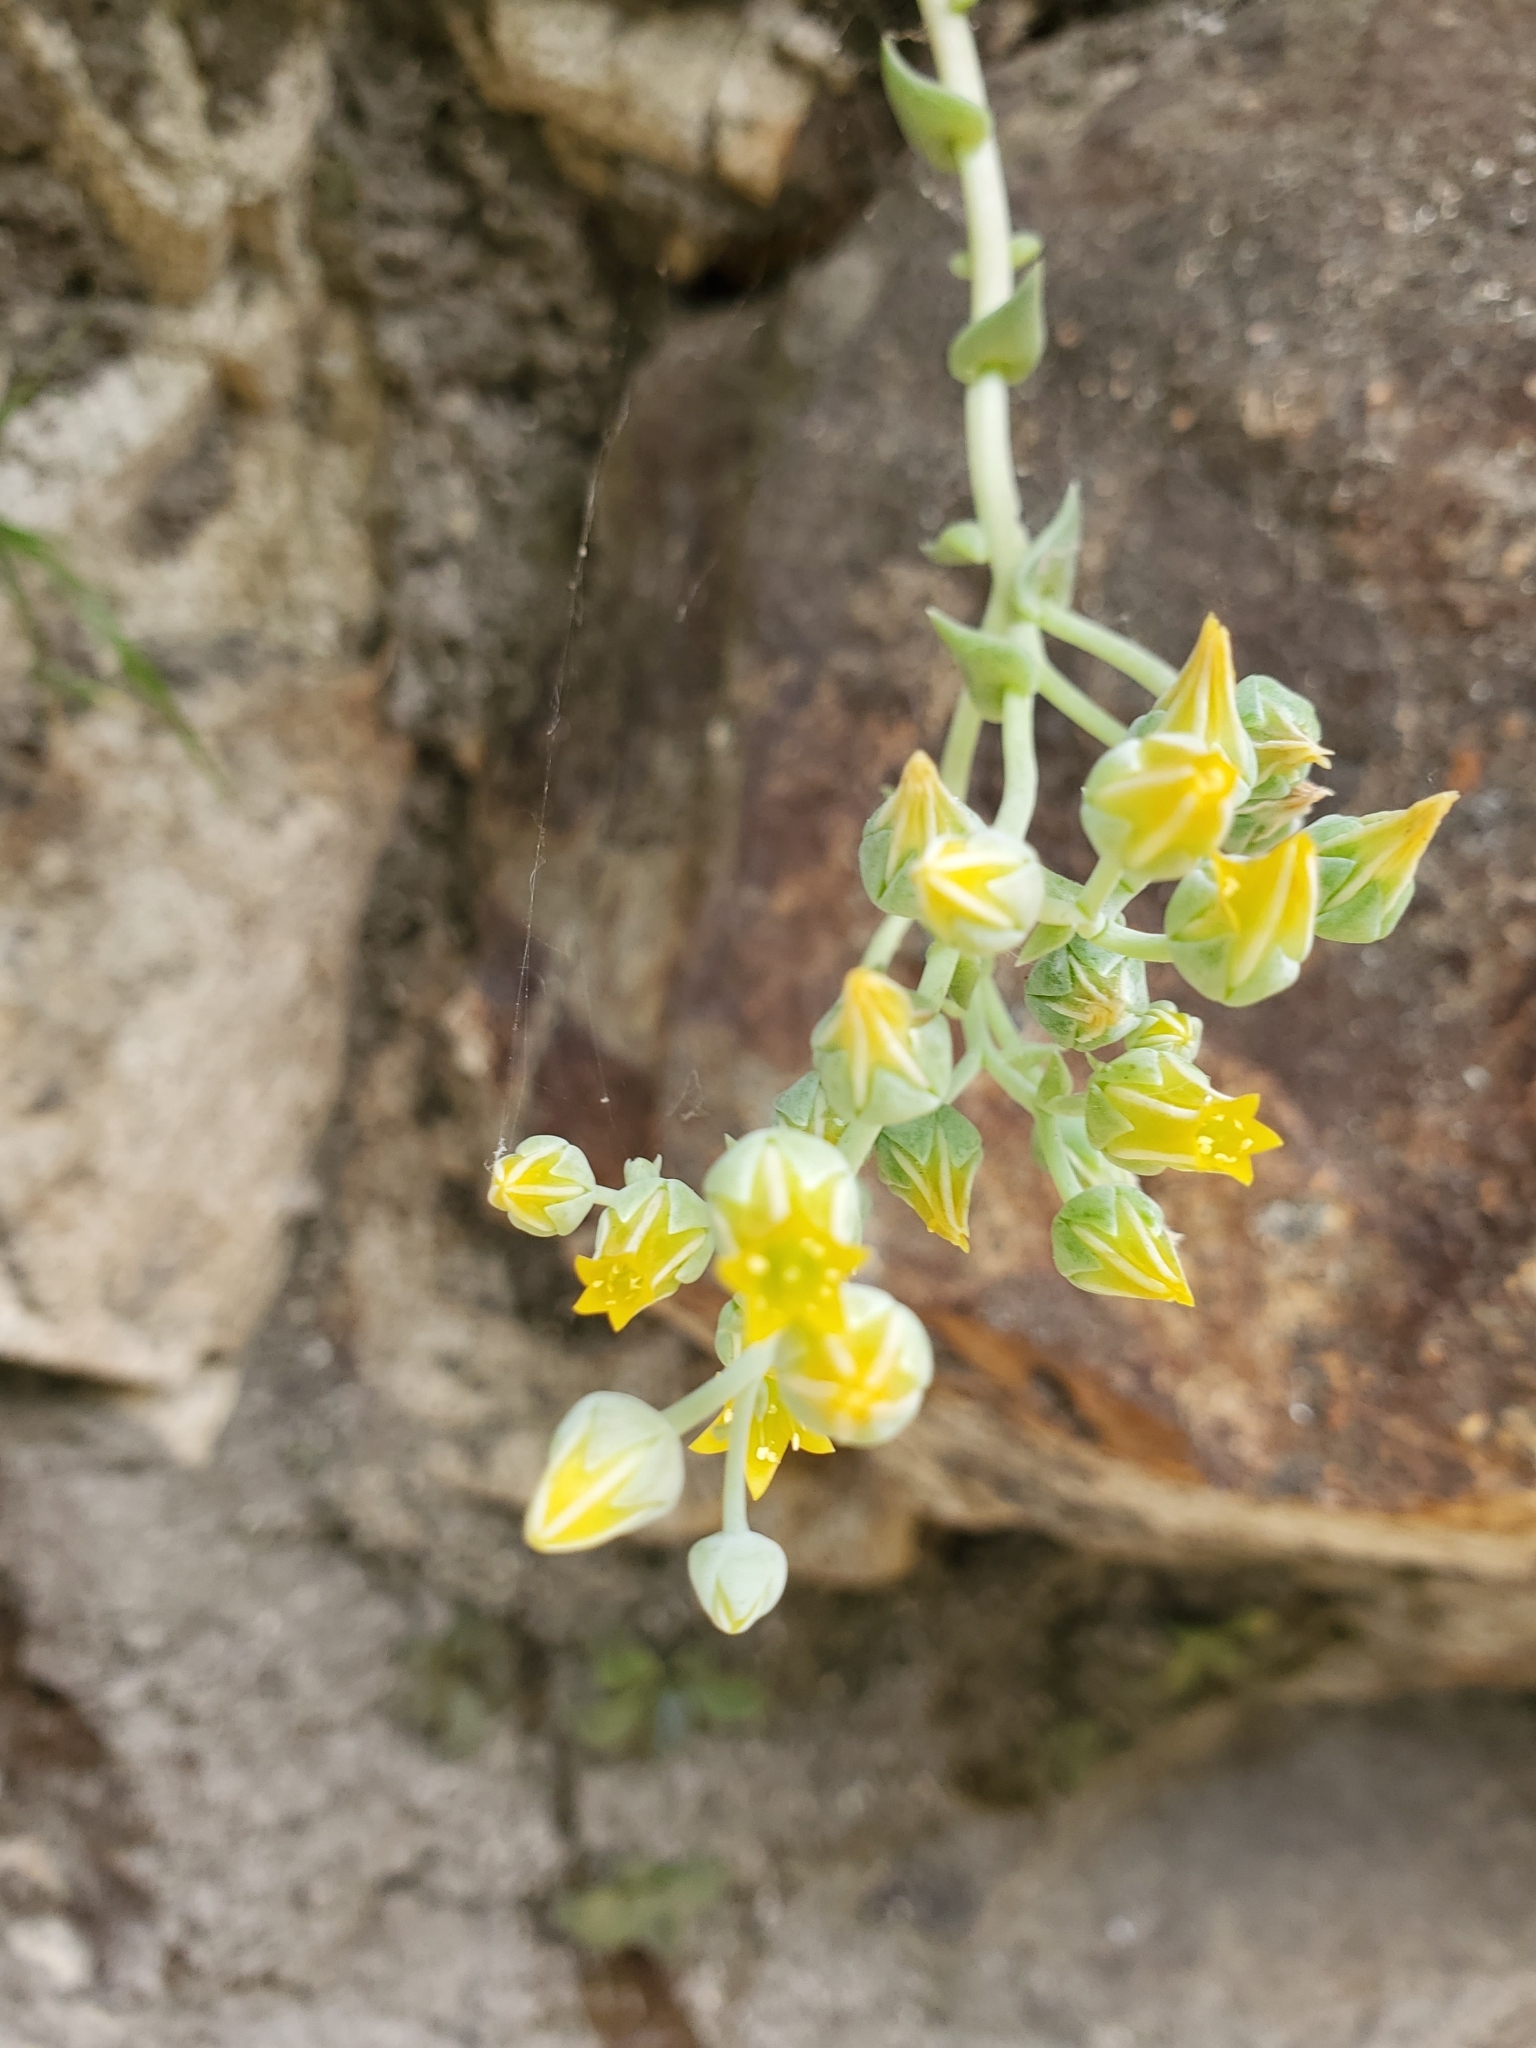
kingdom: Plantae
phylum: Tracheophyta
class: Magnoliopsida
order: Saxifragales
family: Crassulaceae
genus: Dudleya
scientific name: Dudleya cymosa
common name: Canyon dudleya
